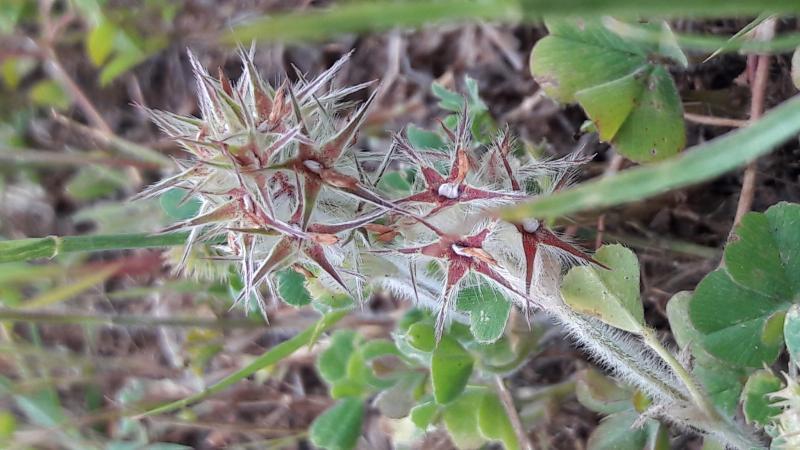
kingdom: Plantae
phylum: Tracheophyta
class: Magnoliopsida
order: Fabales
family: Fabaceae
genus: Trifolium
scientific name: Trifolium stellatum
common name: Starry clover
